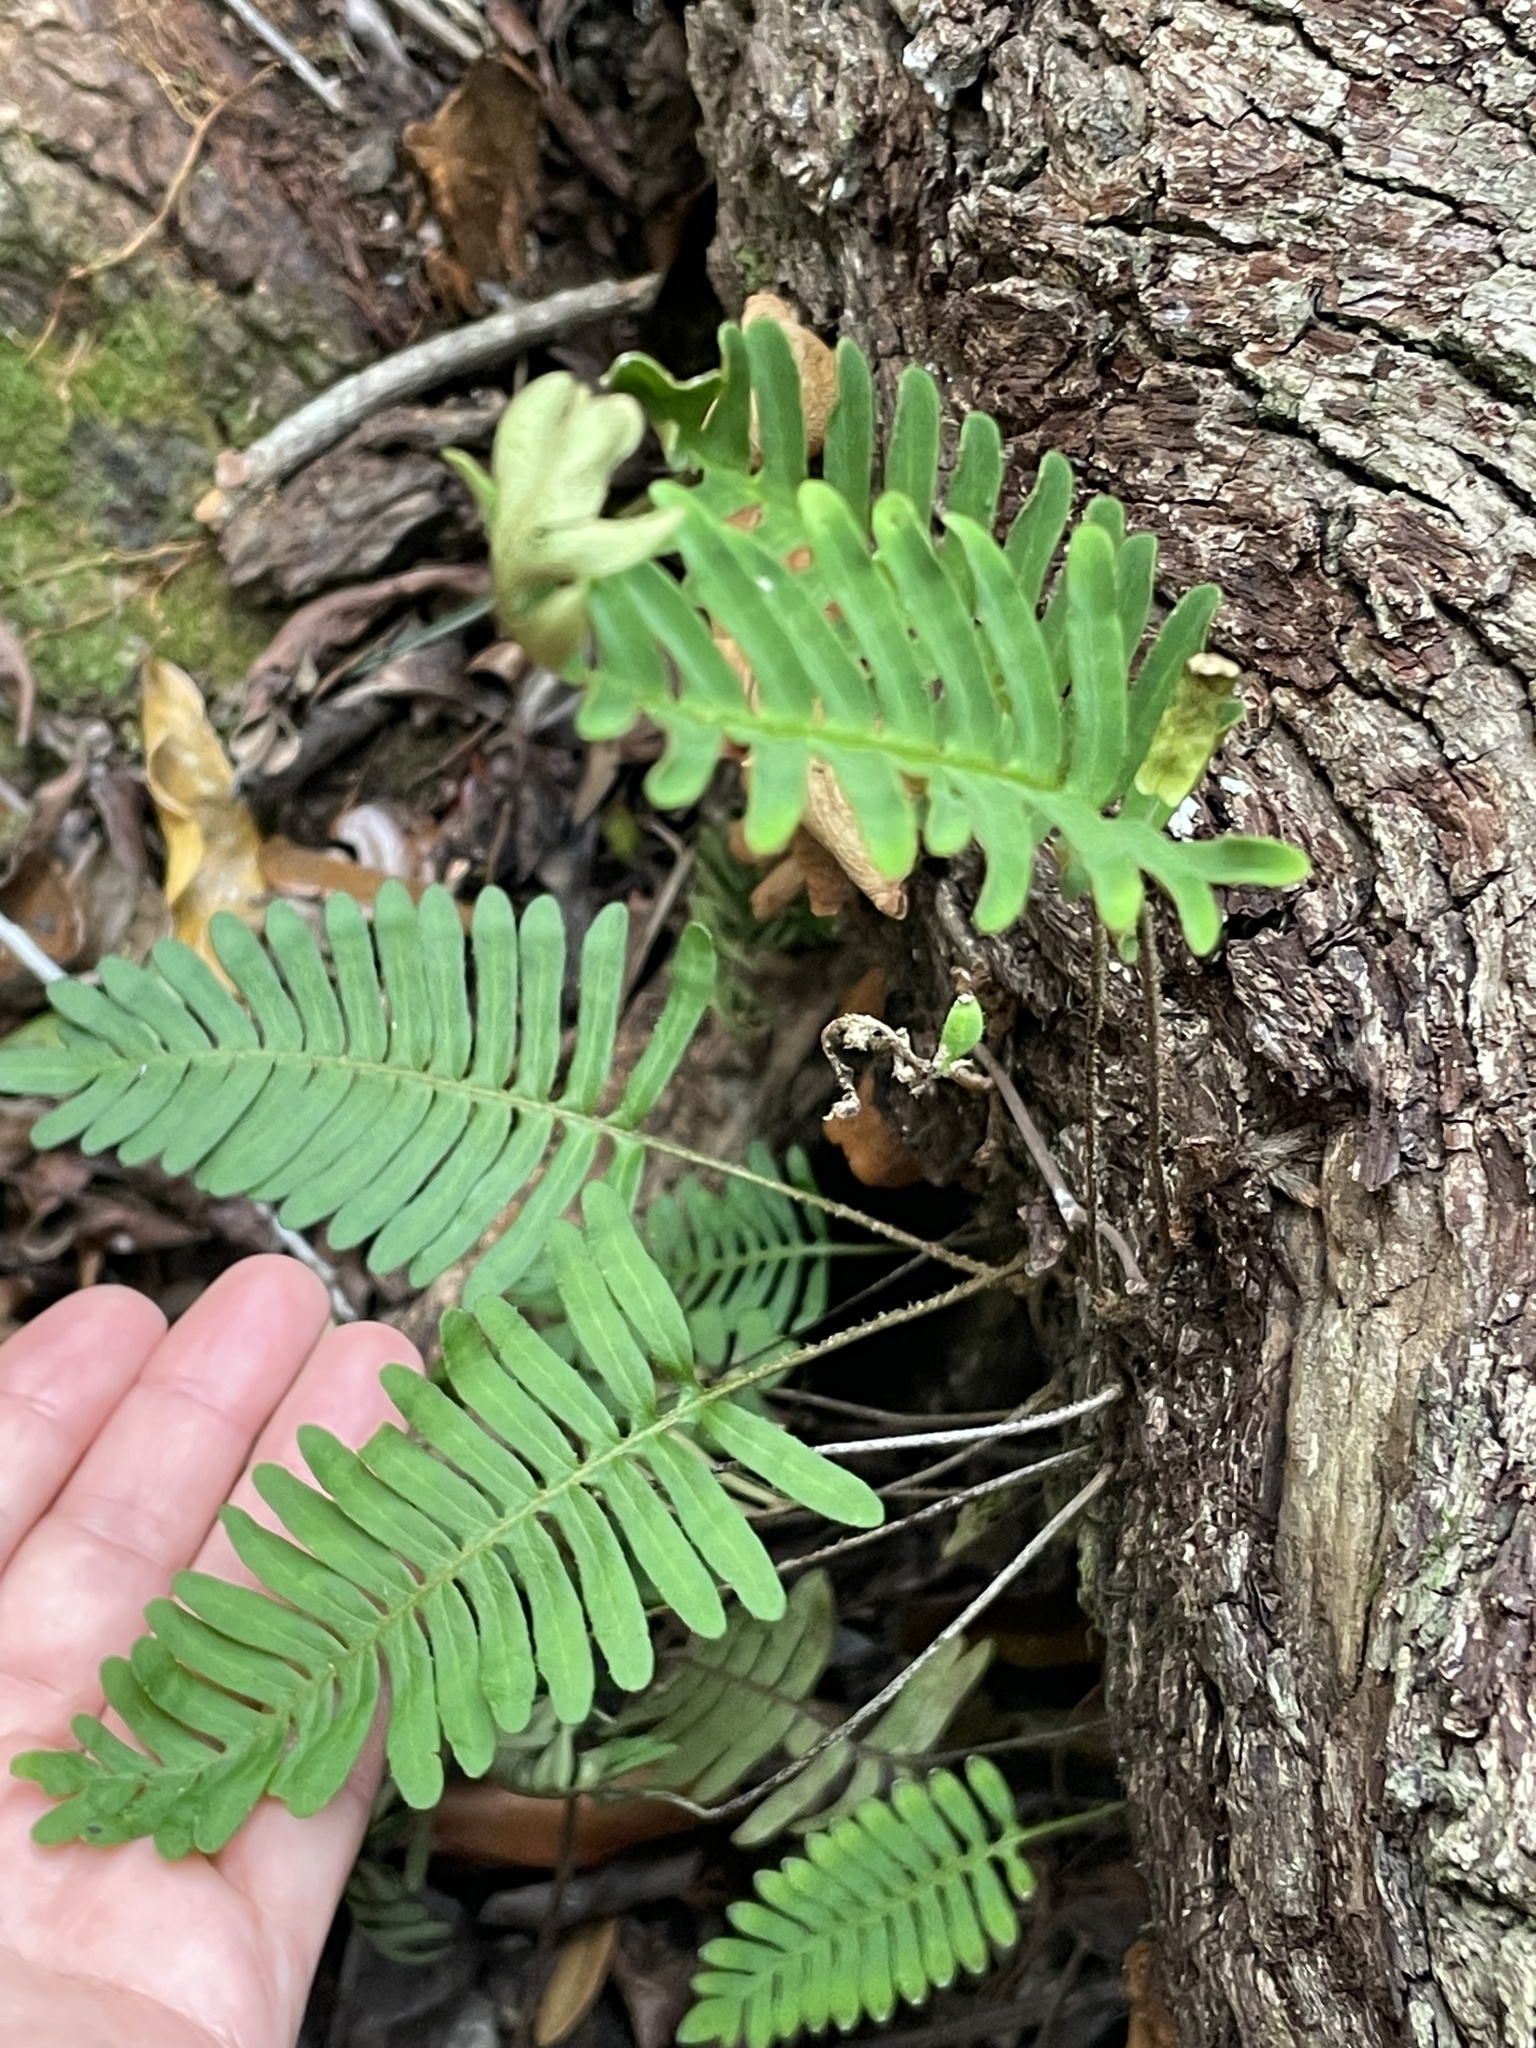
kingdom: Plantae
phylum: Tracheophyta
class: Polypodiopsida
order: Polypodiales
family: Polypodiaceae
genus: Pleopeltis
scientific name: Pleopeltis michauxiana
